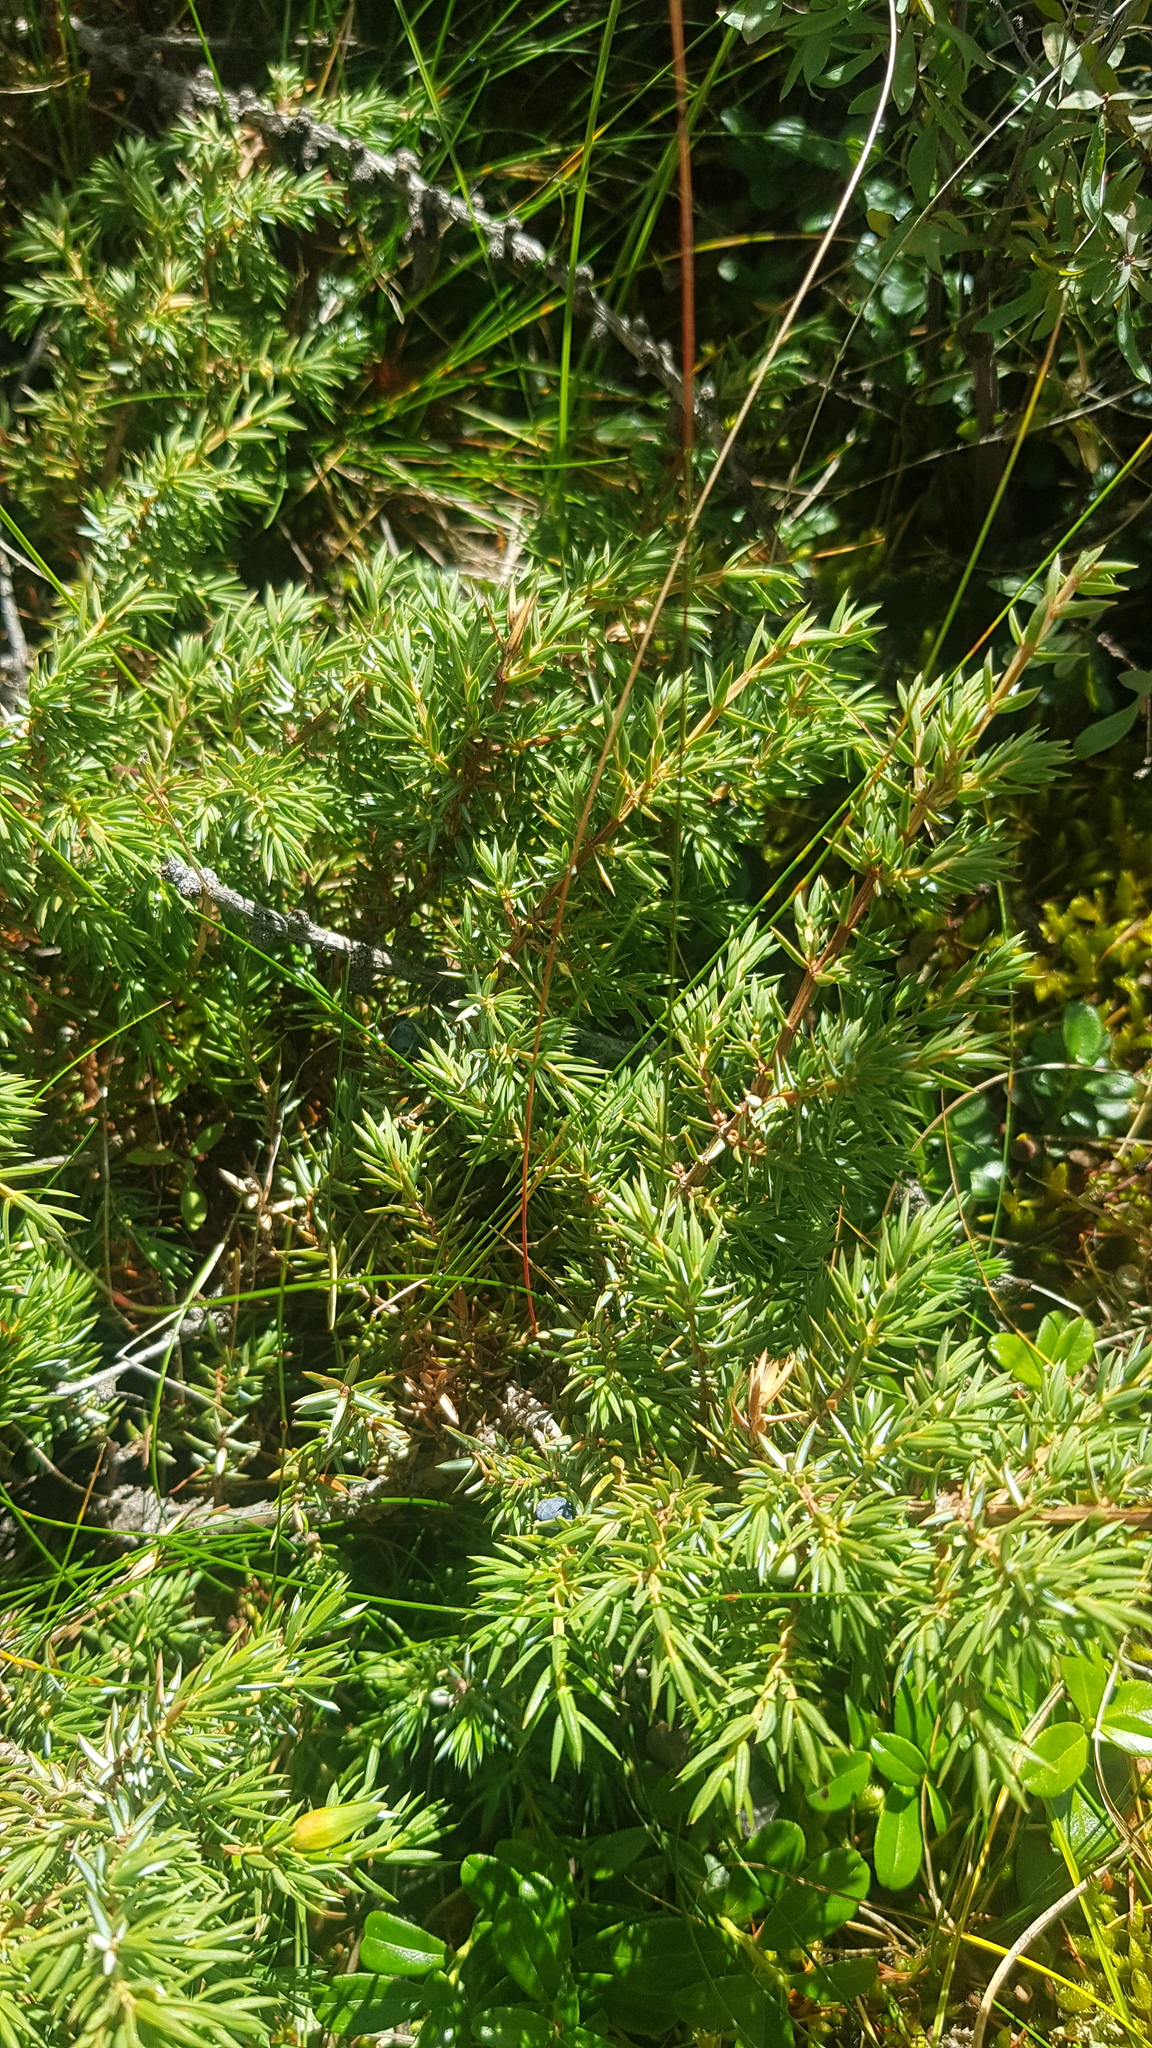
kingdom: Plantae
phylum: Tracheophyta
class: Pinopsida
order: Pinales
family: Cupressaceae
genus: Juniperus
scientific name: Juniperus communis
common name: Common juniper
